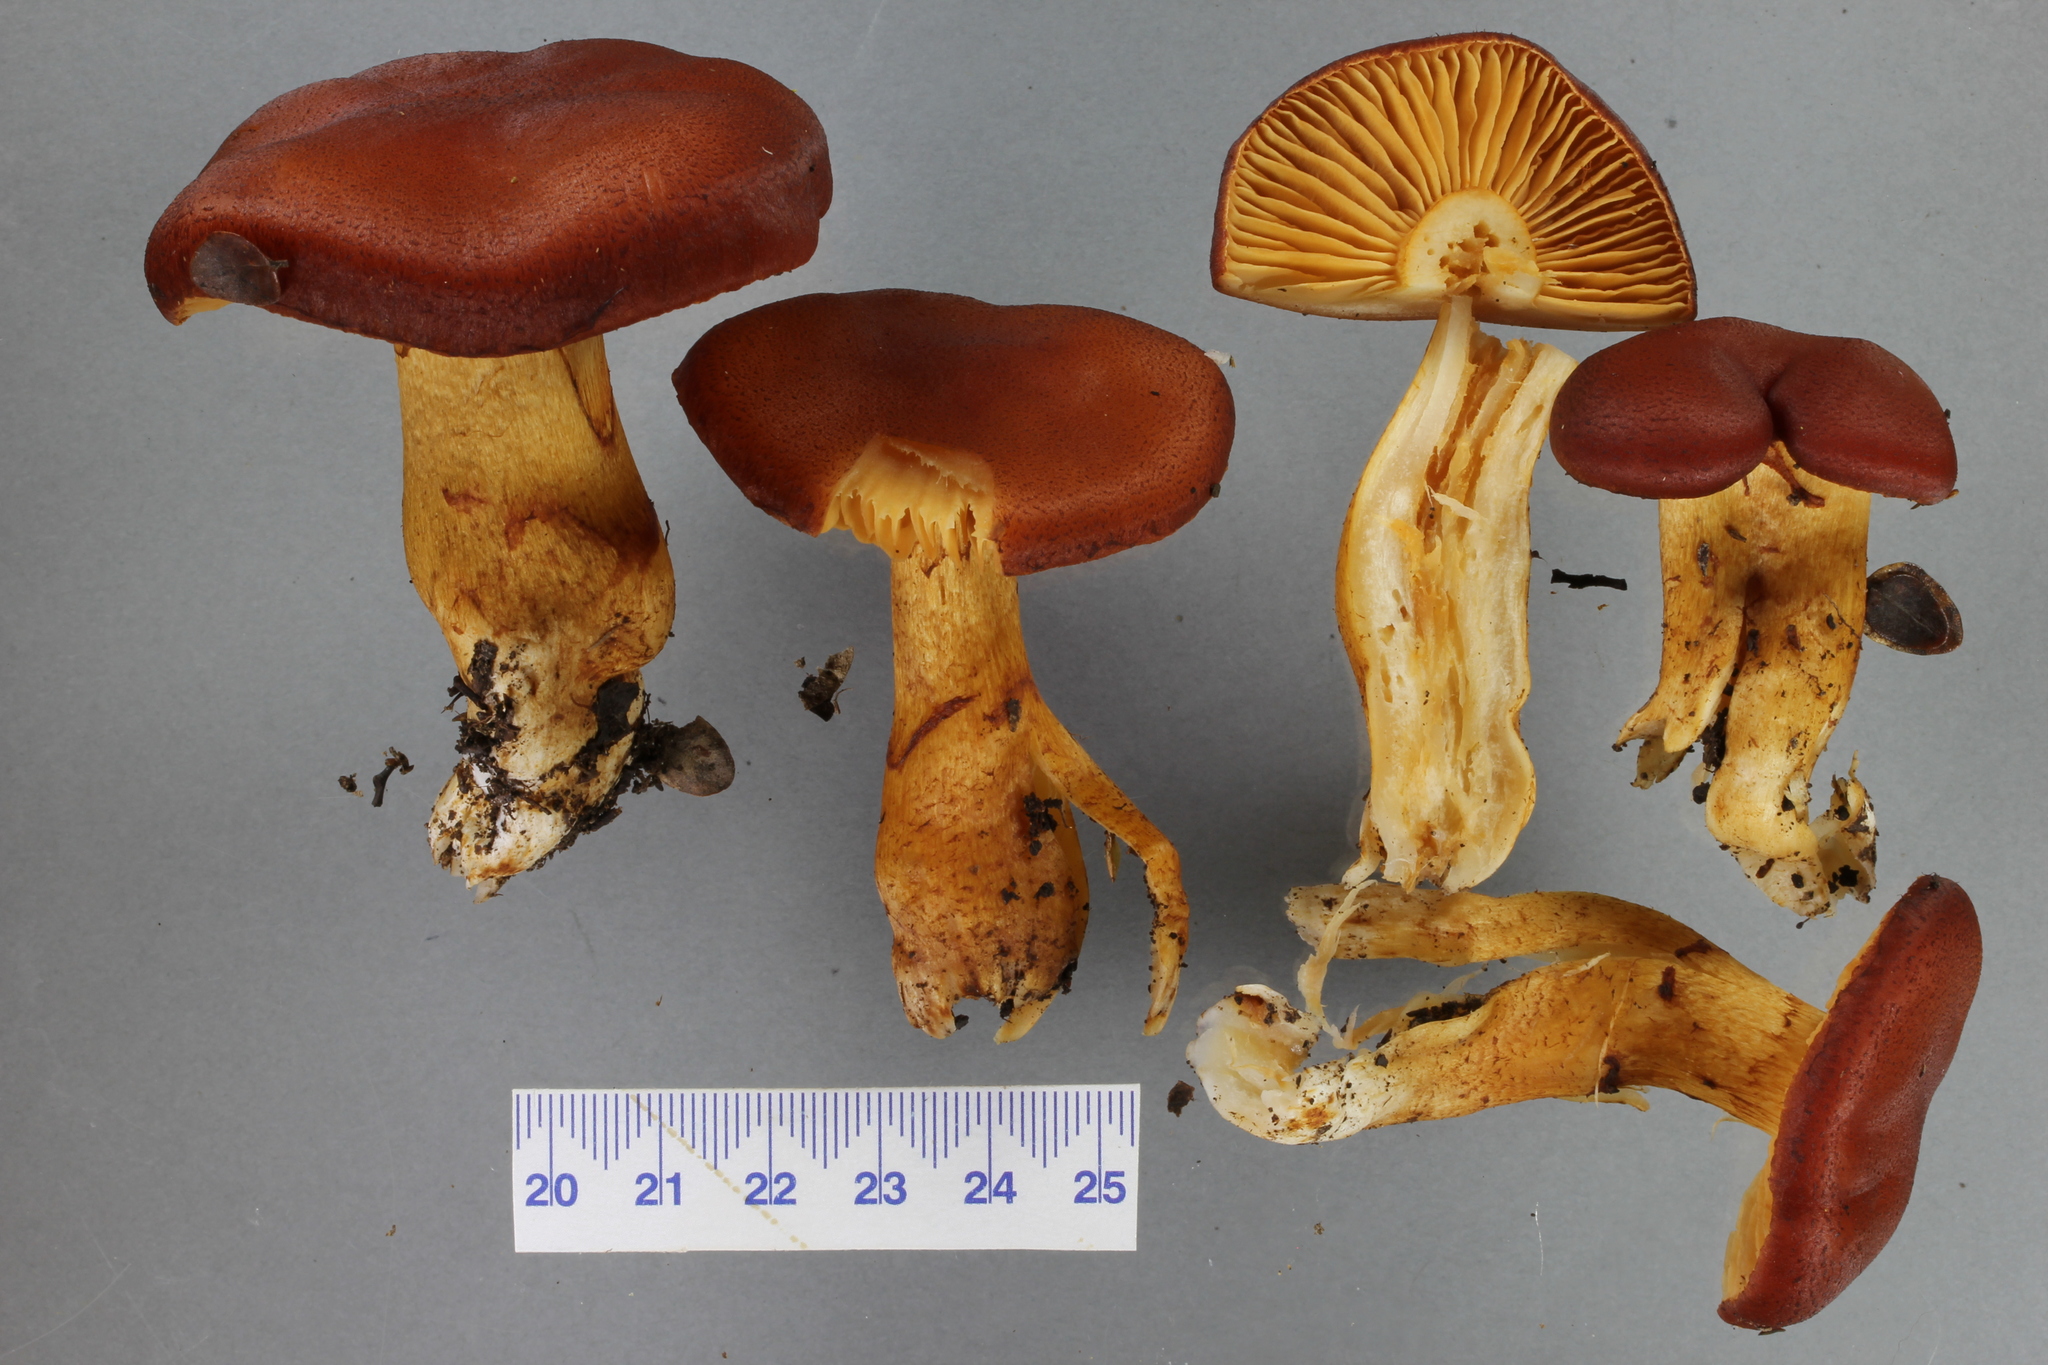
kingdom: Fungi
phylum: Basidiomycota
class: Agaricomycetes
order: Agaricales
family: Cortinariaceae
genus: Aureonarius
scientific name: Aureonarius rubrodactylus
